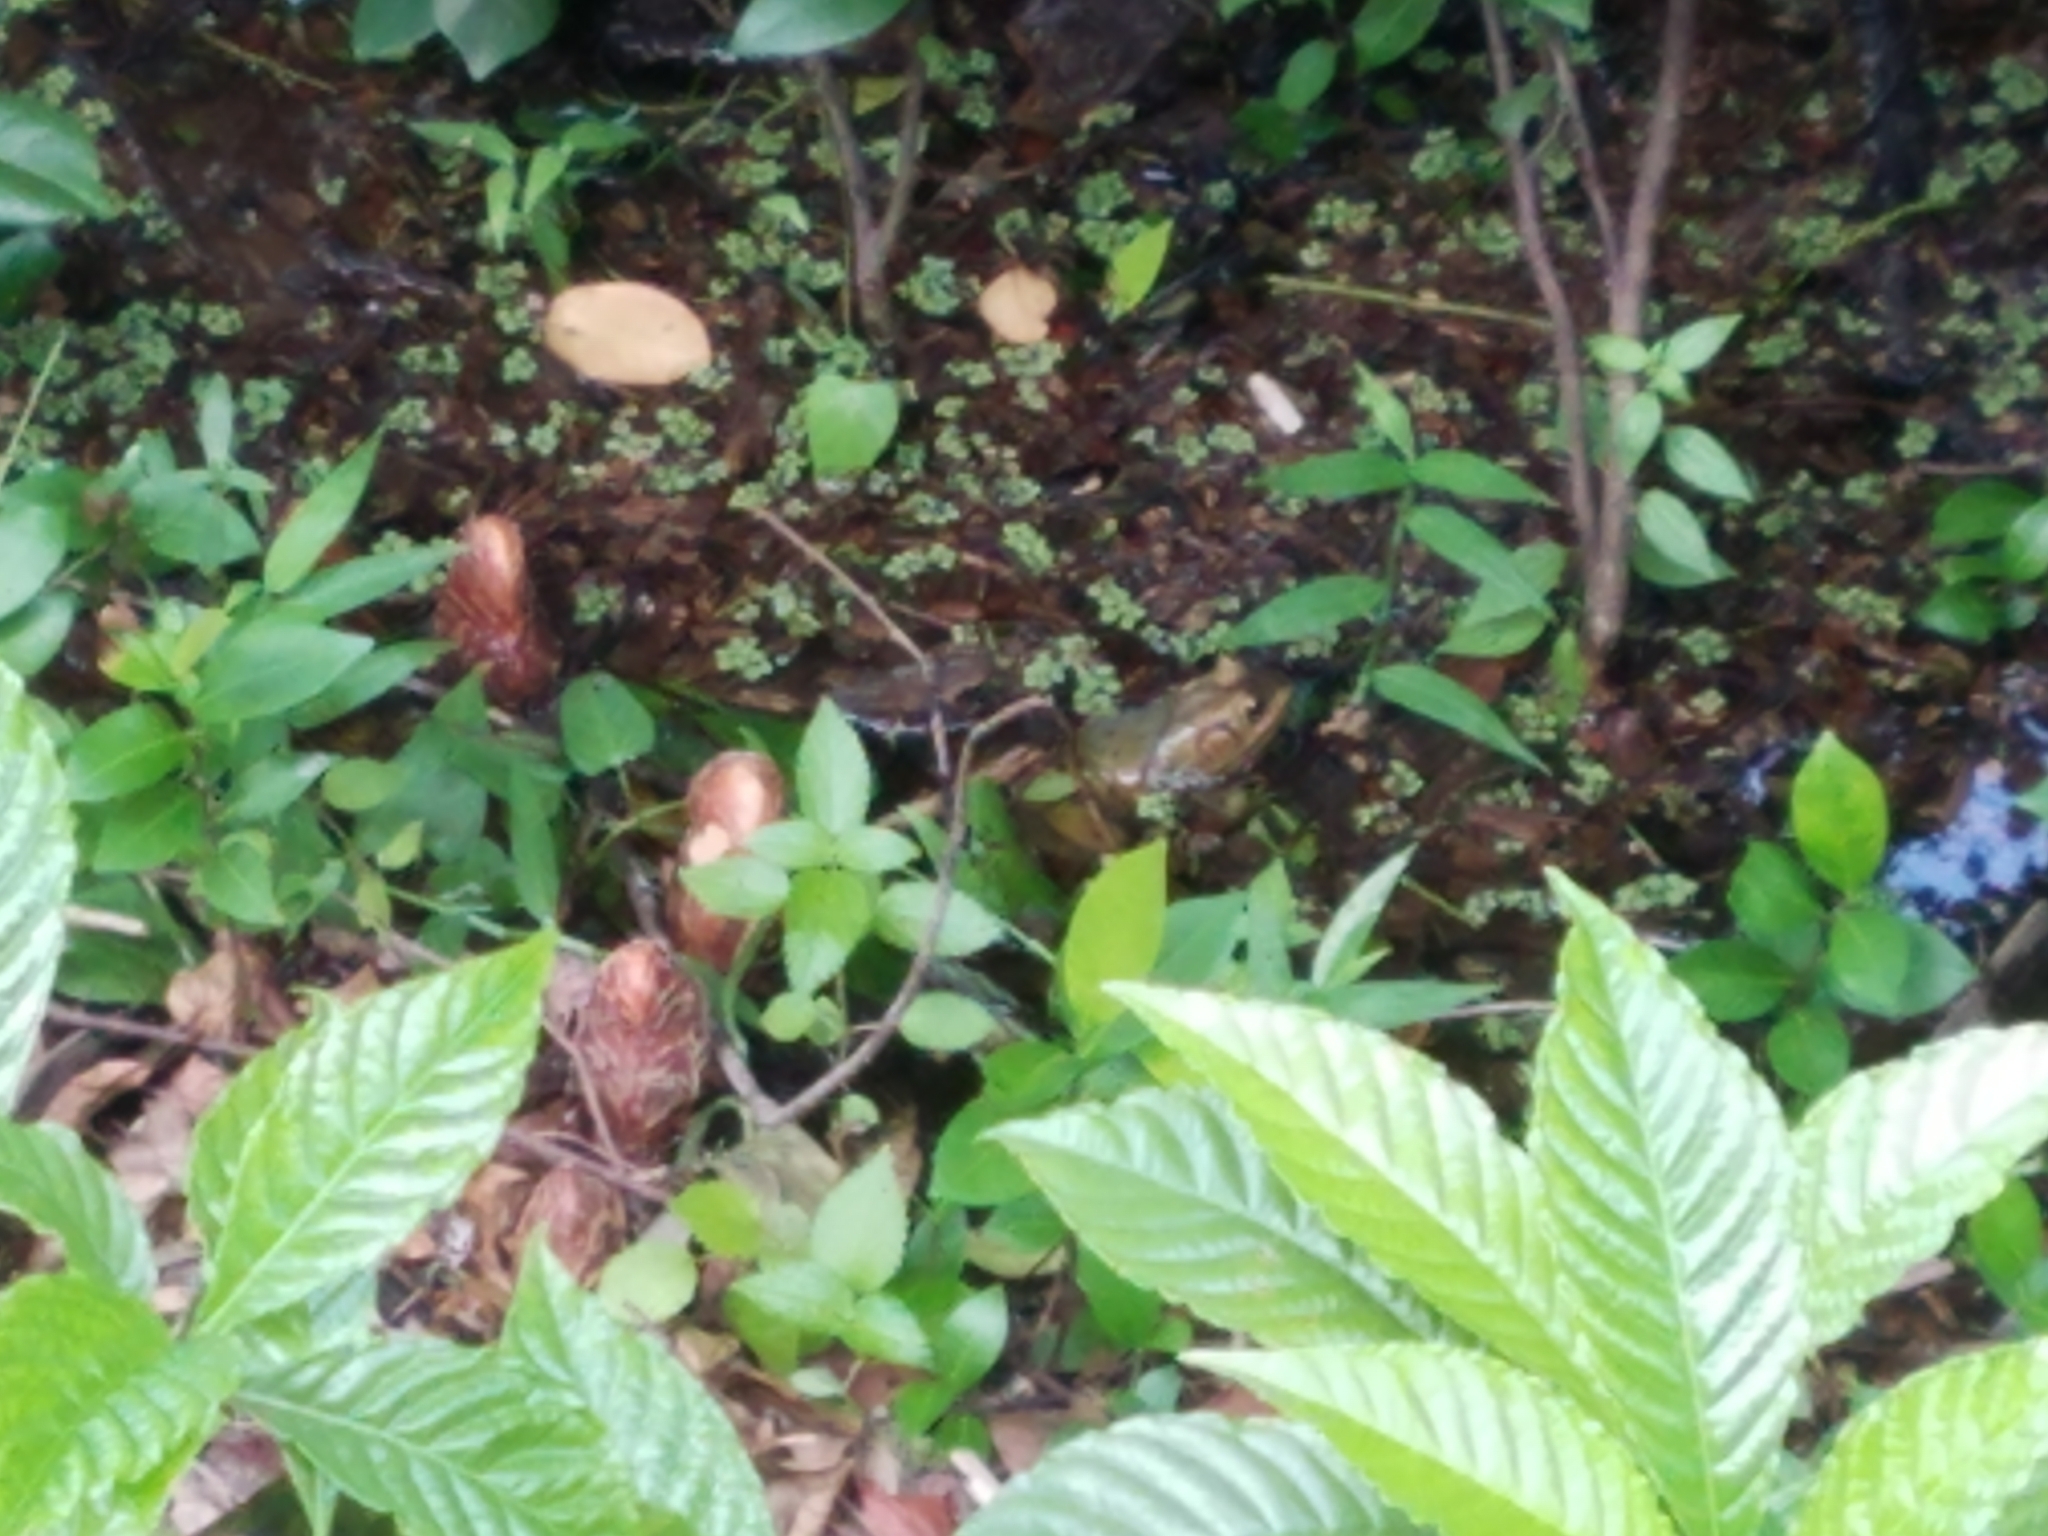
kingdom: Animalia
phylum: Chordata
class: Amphibia
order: Anura
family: Ranidae
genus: Lithobates
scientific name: Lithobates grylio
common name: Pig frog
